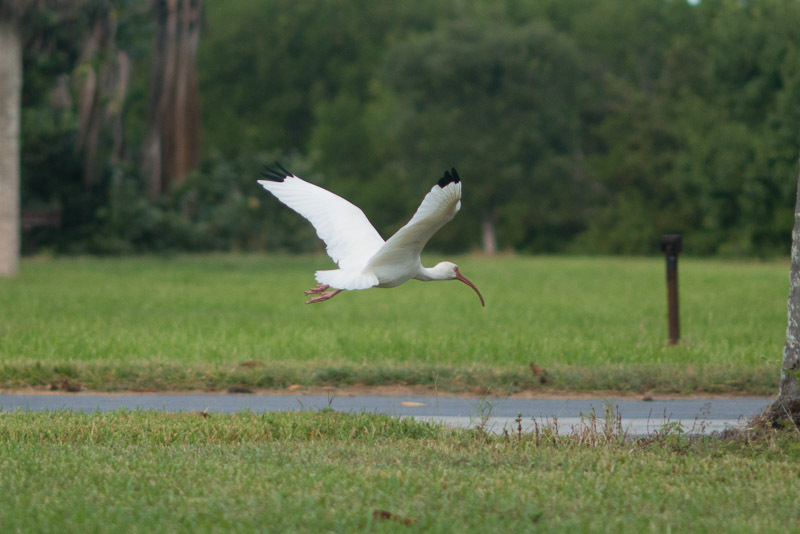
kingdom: Animalia
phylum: Chordata
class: Aves
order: Pelecaniformes
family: Threskiornithidae
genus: Eudocimus
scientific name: Eudocimus albus
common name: White ibis
